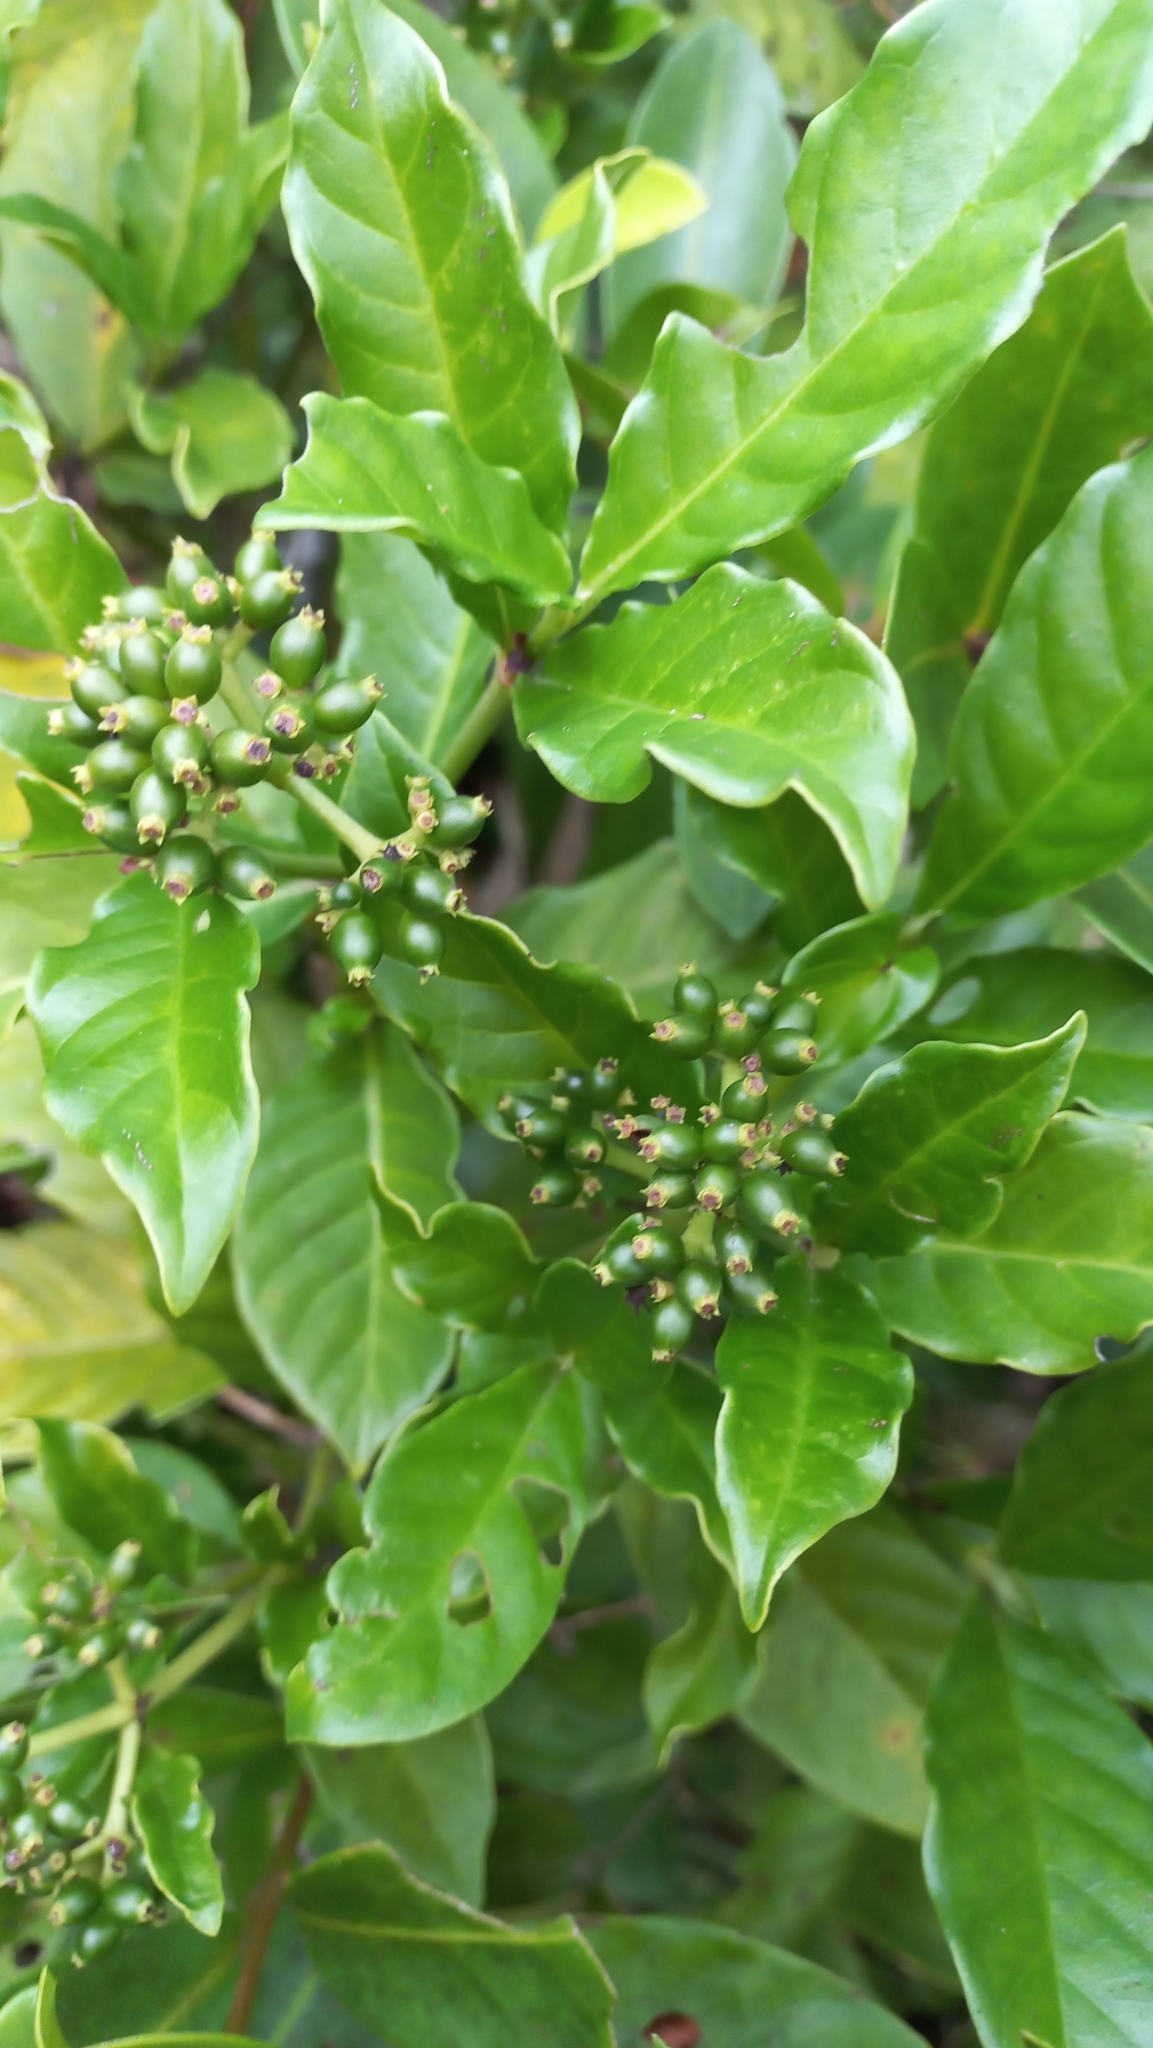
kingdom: Plantae
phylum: Tracheophyta
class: Magnoliopsida
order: Gentianales
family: Rubiaceae
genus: Psychotria
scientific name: Psychotria carthagenensis
